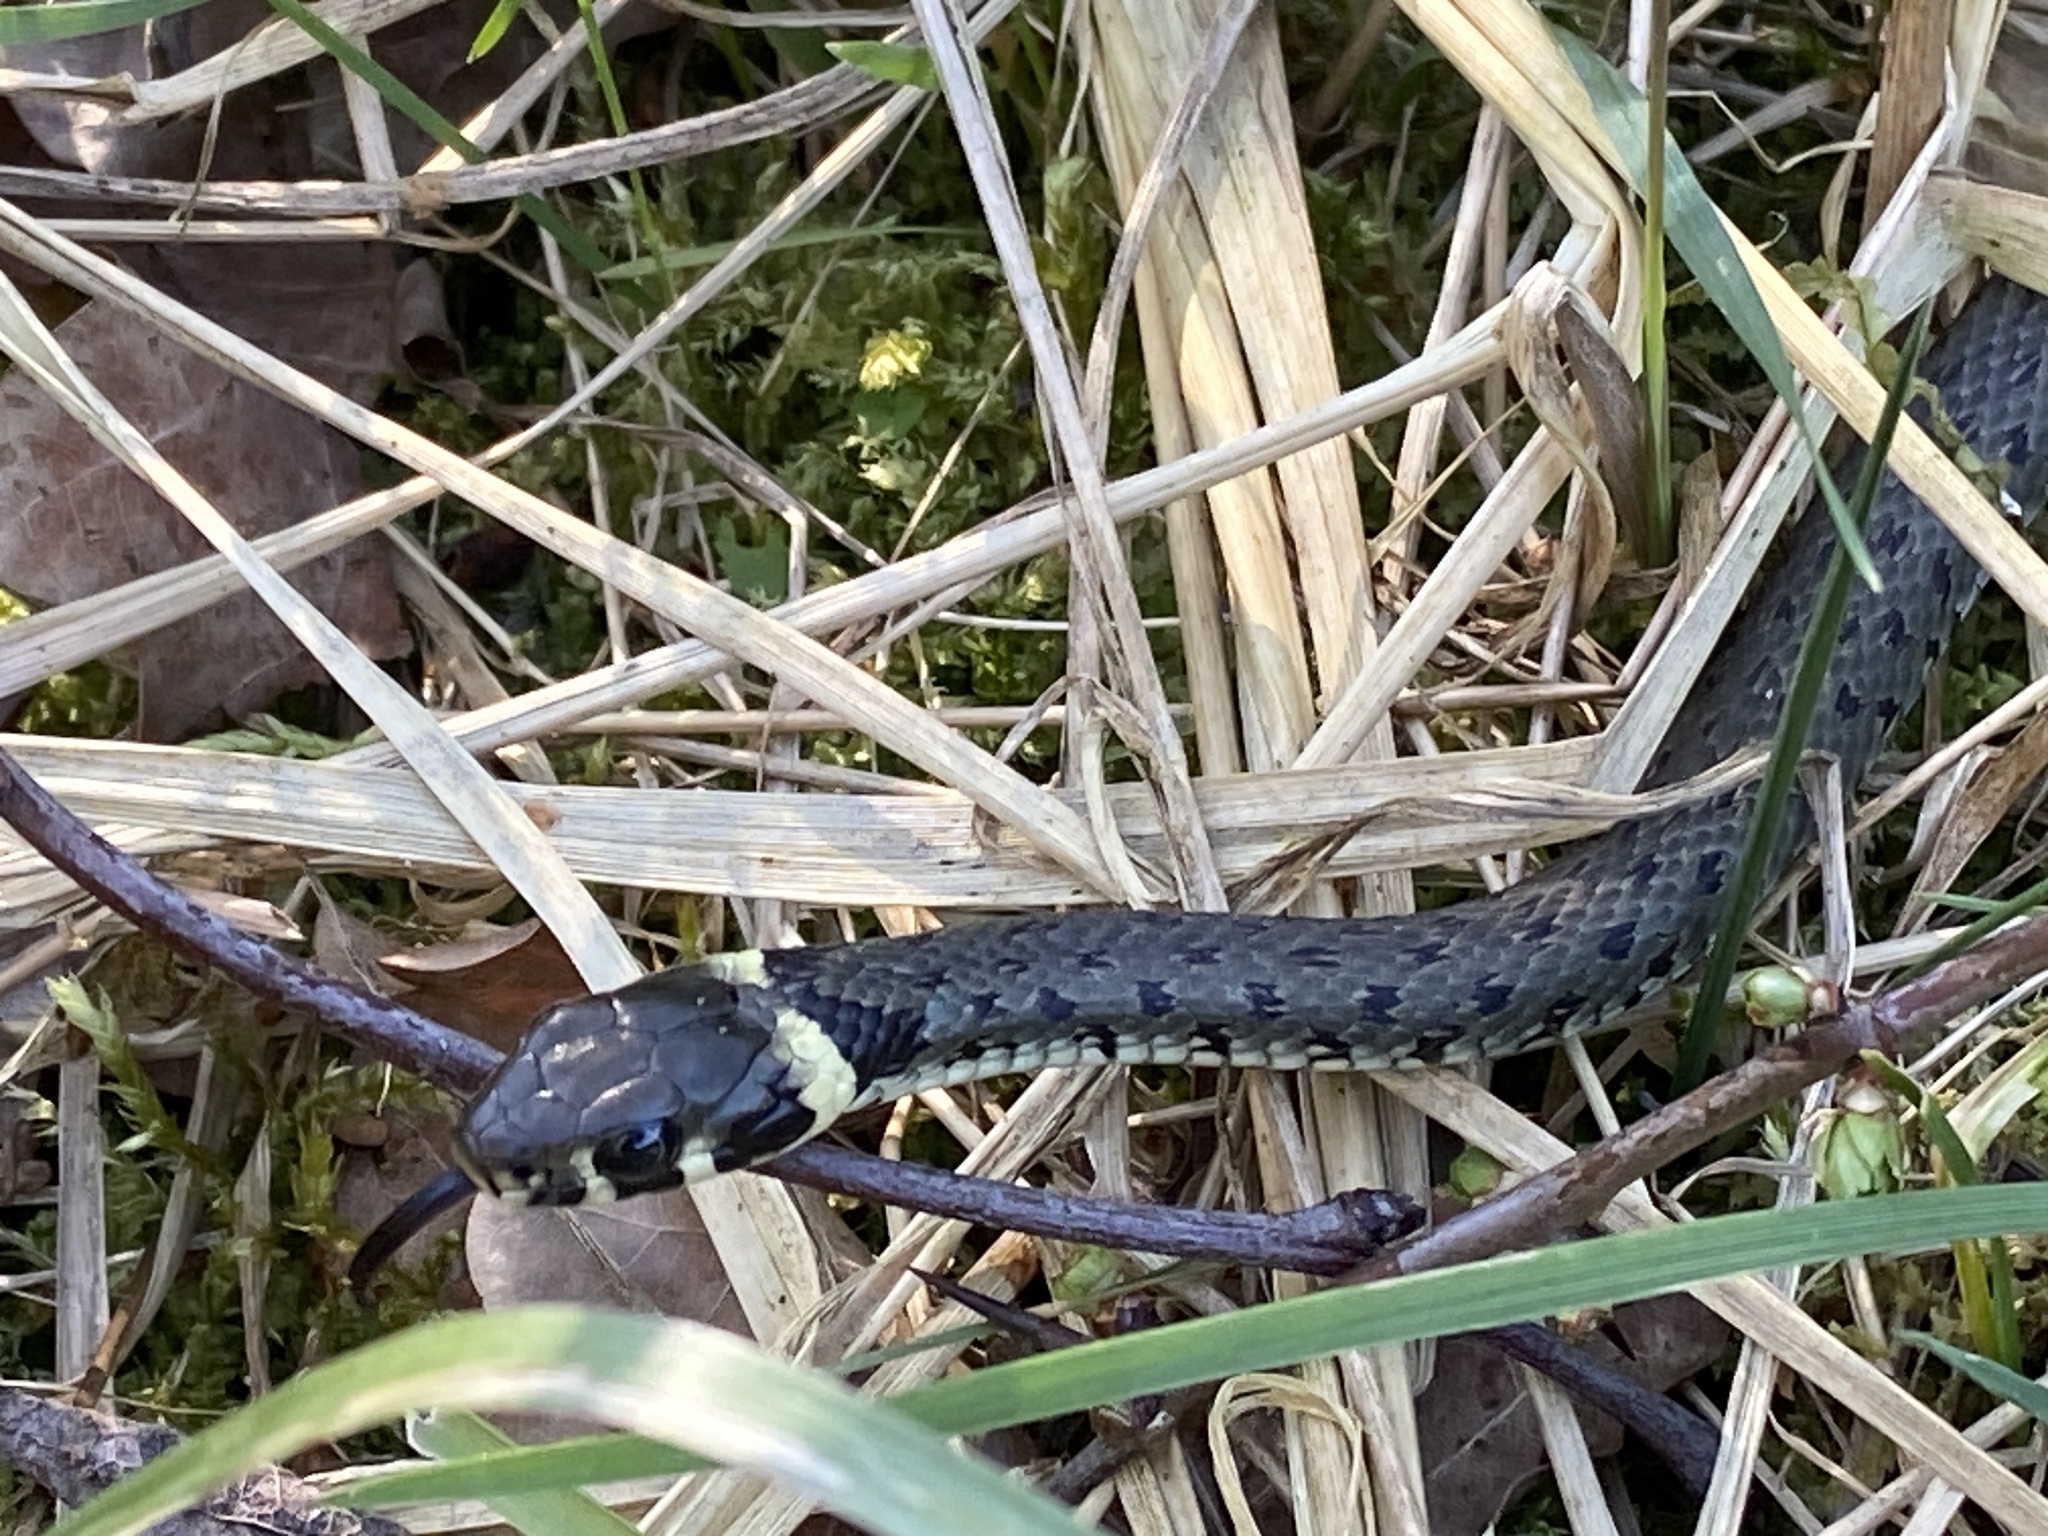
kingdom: Animalia
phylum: Chordata
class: Squamata
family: Colubridae
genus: Natrix
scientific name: Natrix natrix
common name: Grass snake
